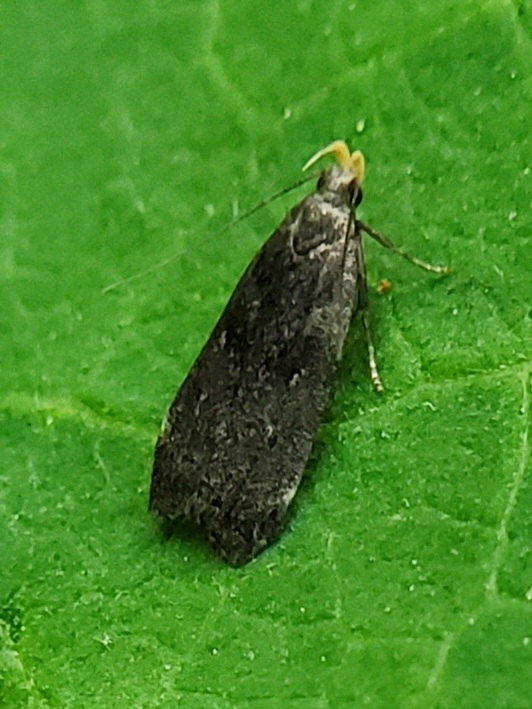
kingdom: Animalia
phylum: Arthropoda
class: Insecta
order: Lepidoptera
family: Gelechiidae
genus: Dichomeris
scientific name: Dichomeris juncidella
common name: Orange-dotted dichomeris moth
